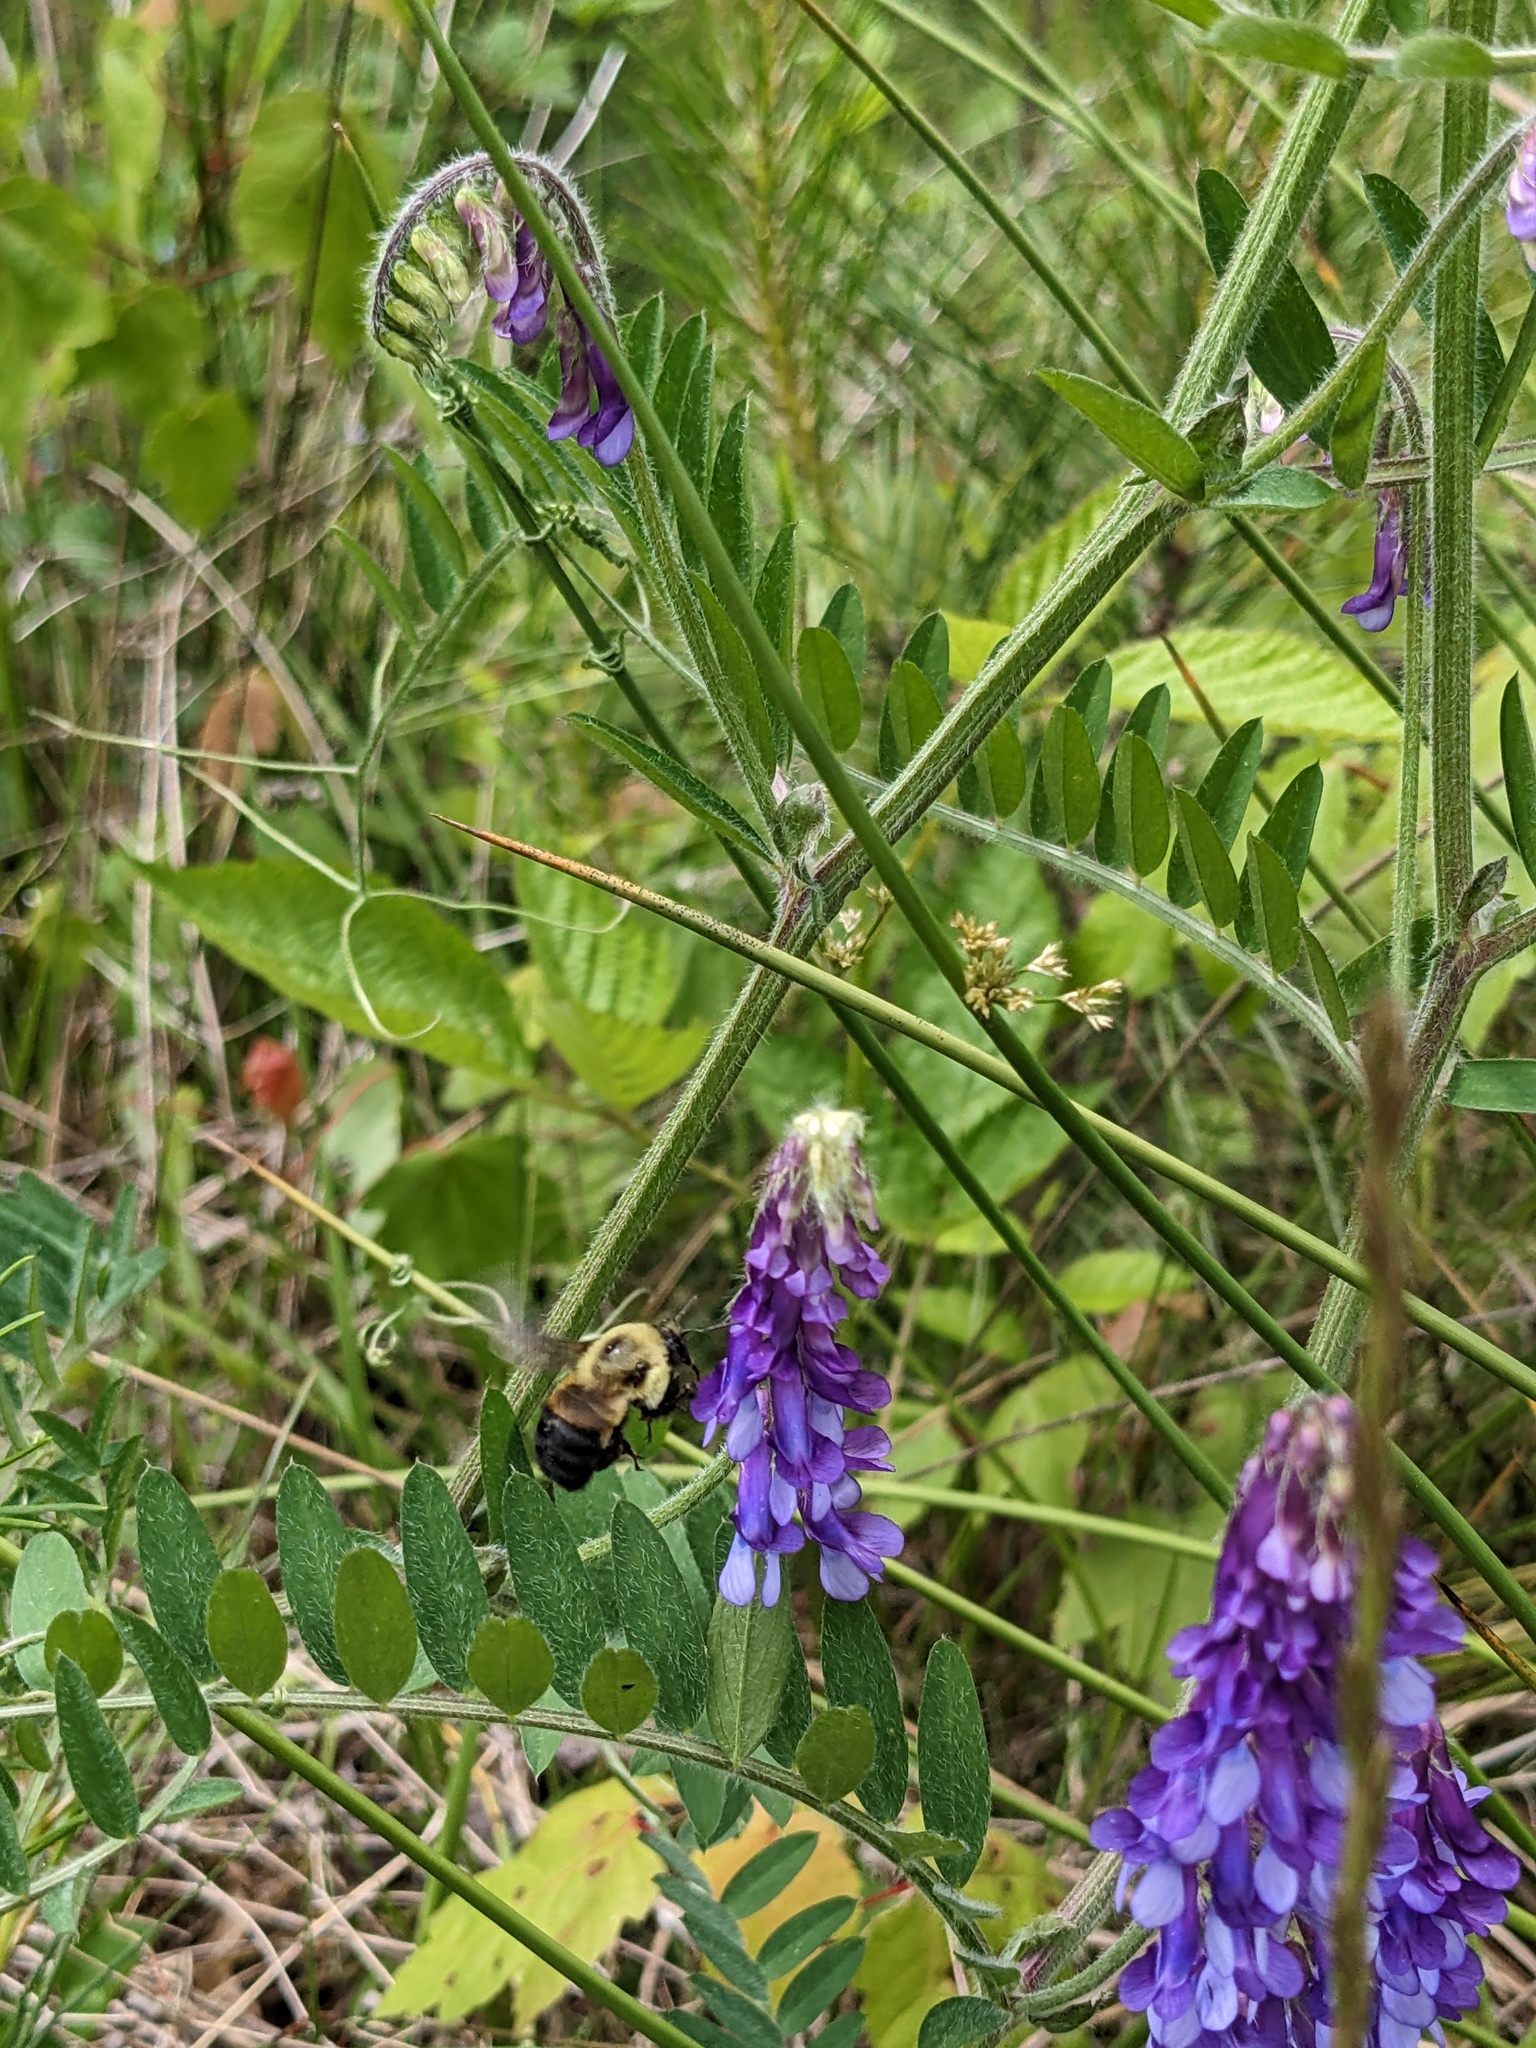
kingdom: Animalia
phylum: Arthropoda
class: Insecta
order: Hymenoptera
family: Apidae
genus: Bombus
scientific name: Bombus griseocollis
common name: Brown-belted bumble bee
